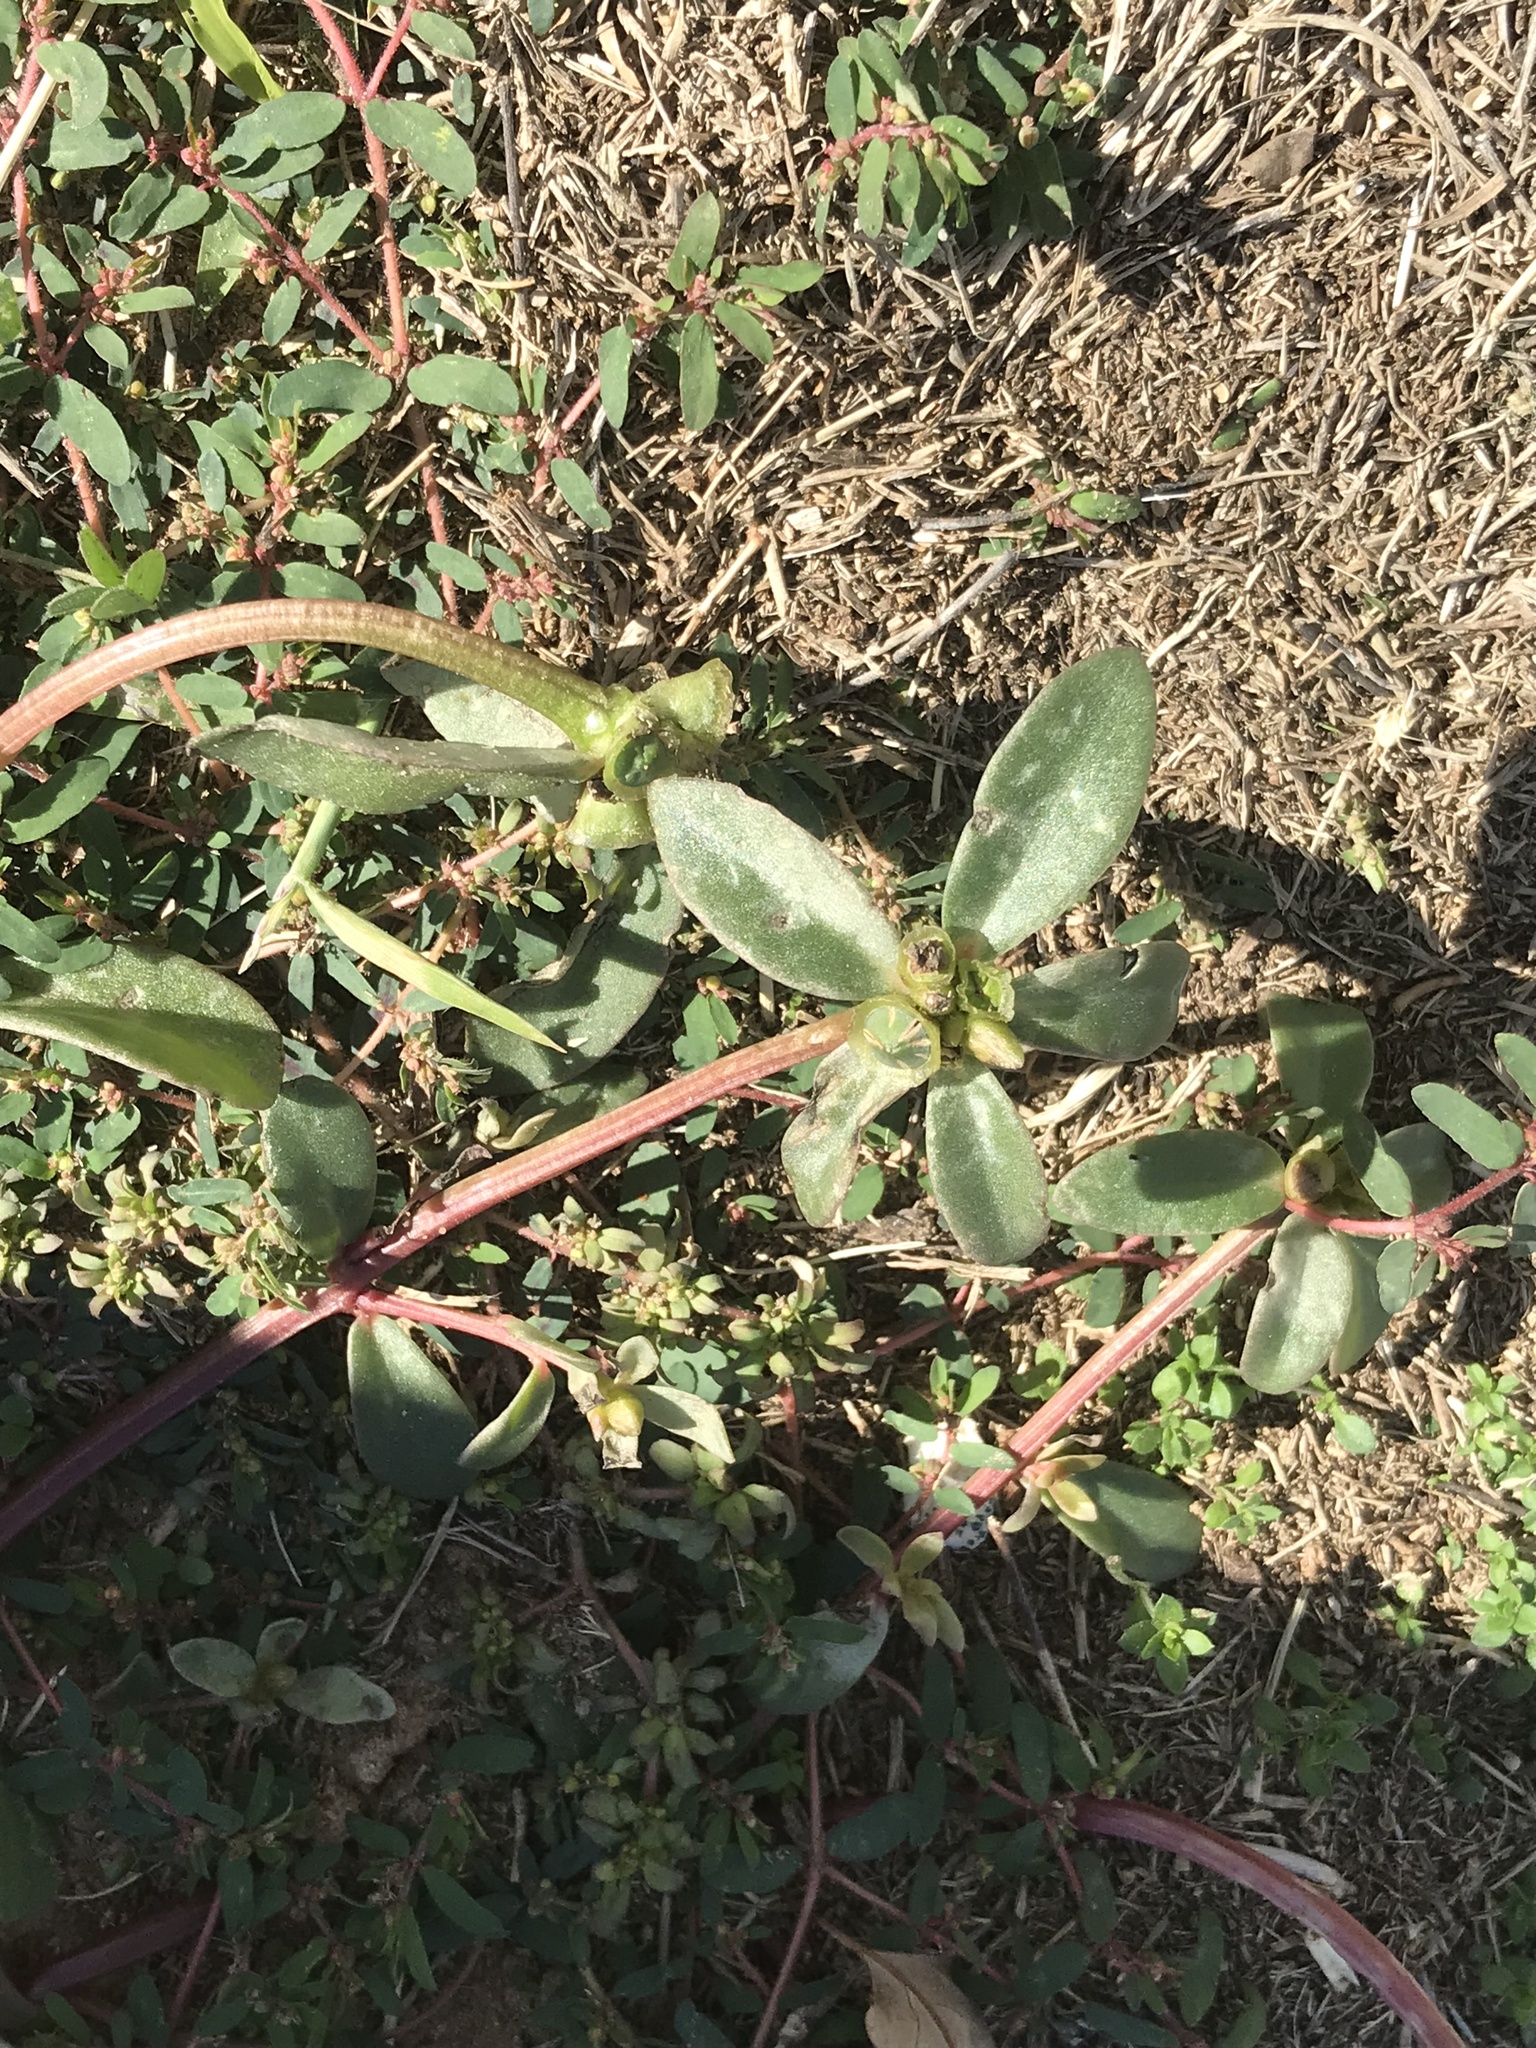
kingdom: Plantae
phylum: Tracheophyta
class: Magnoliopsida
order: Caryophyllales
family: Portulacaceae
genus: Portulaca
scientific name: Portulaca oleracea
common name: Common purslane
